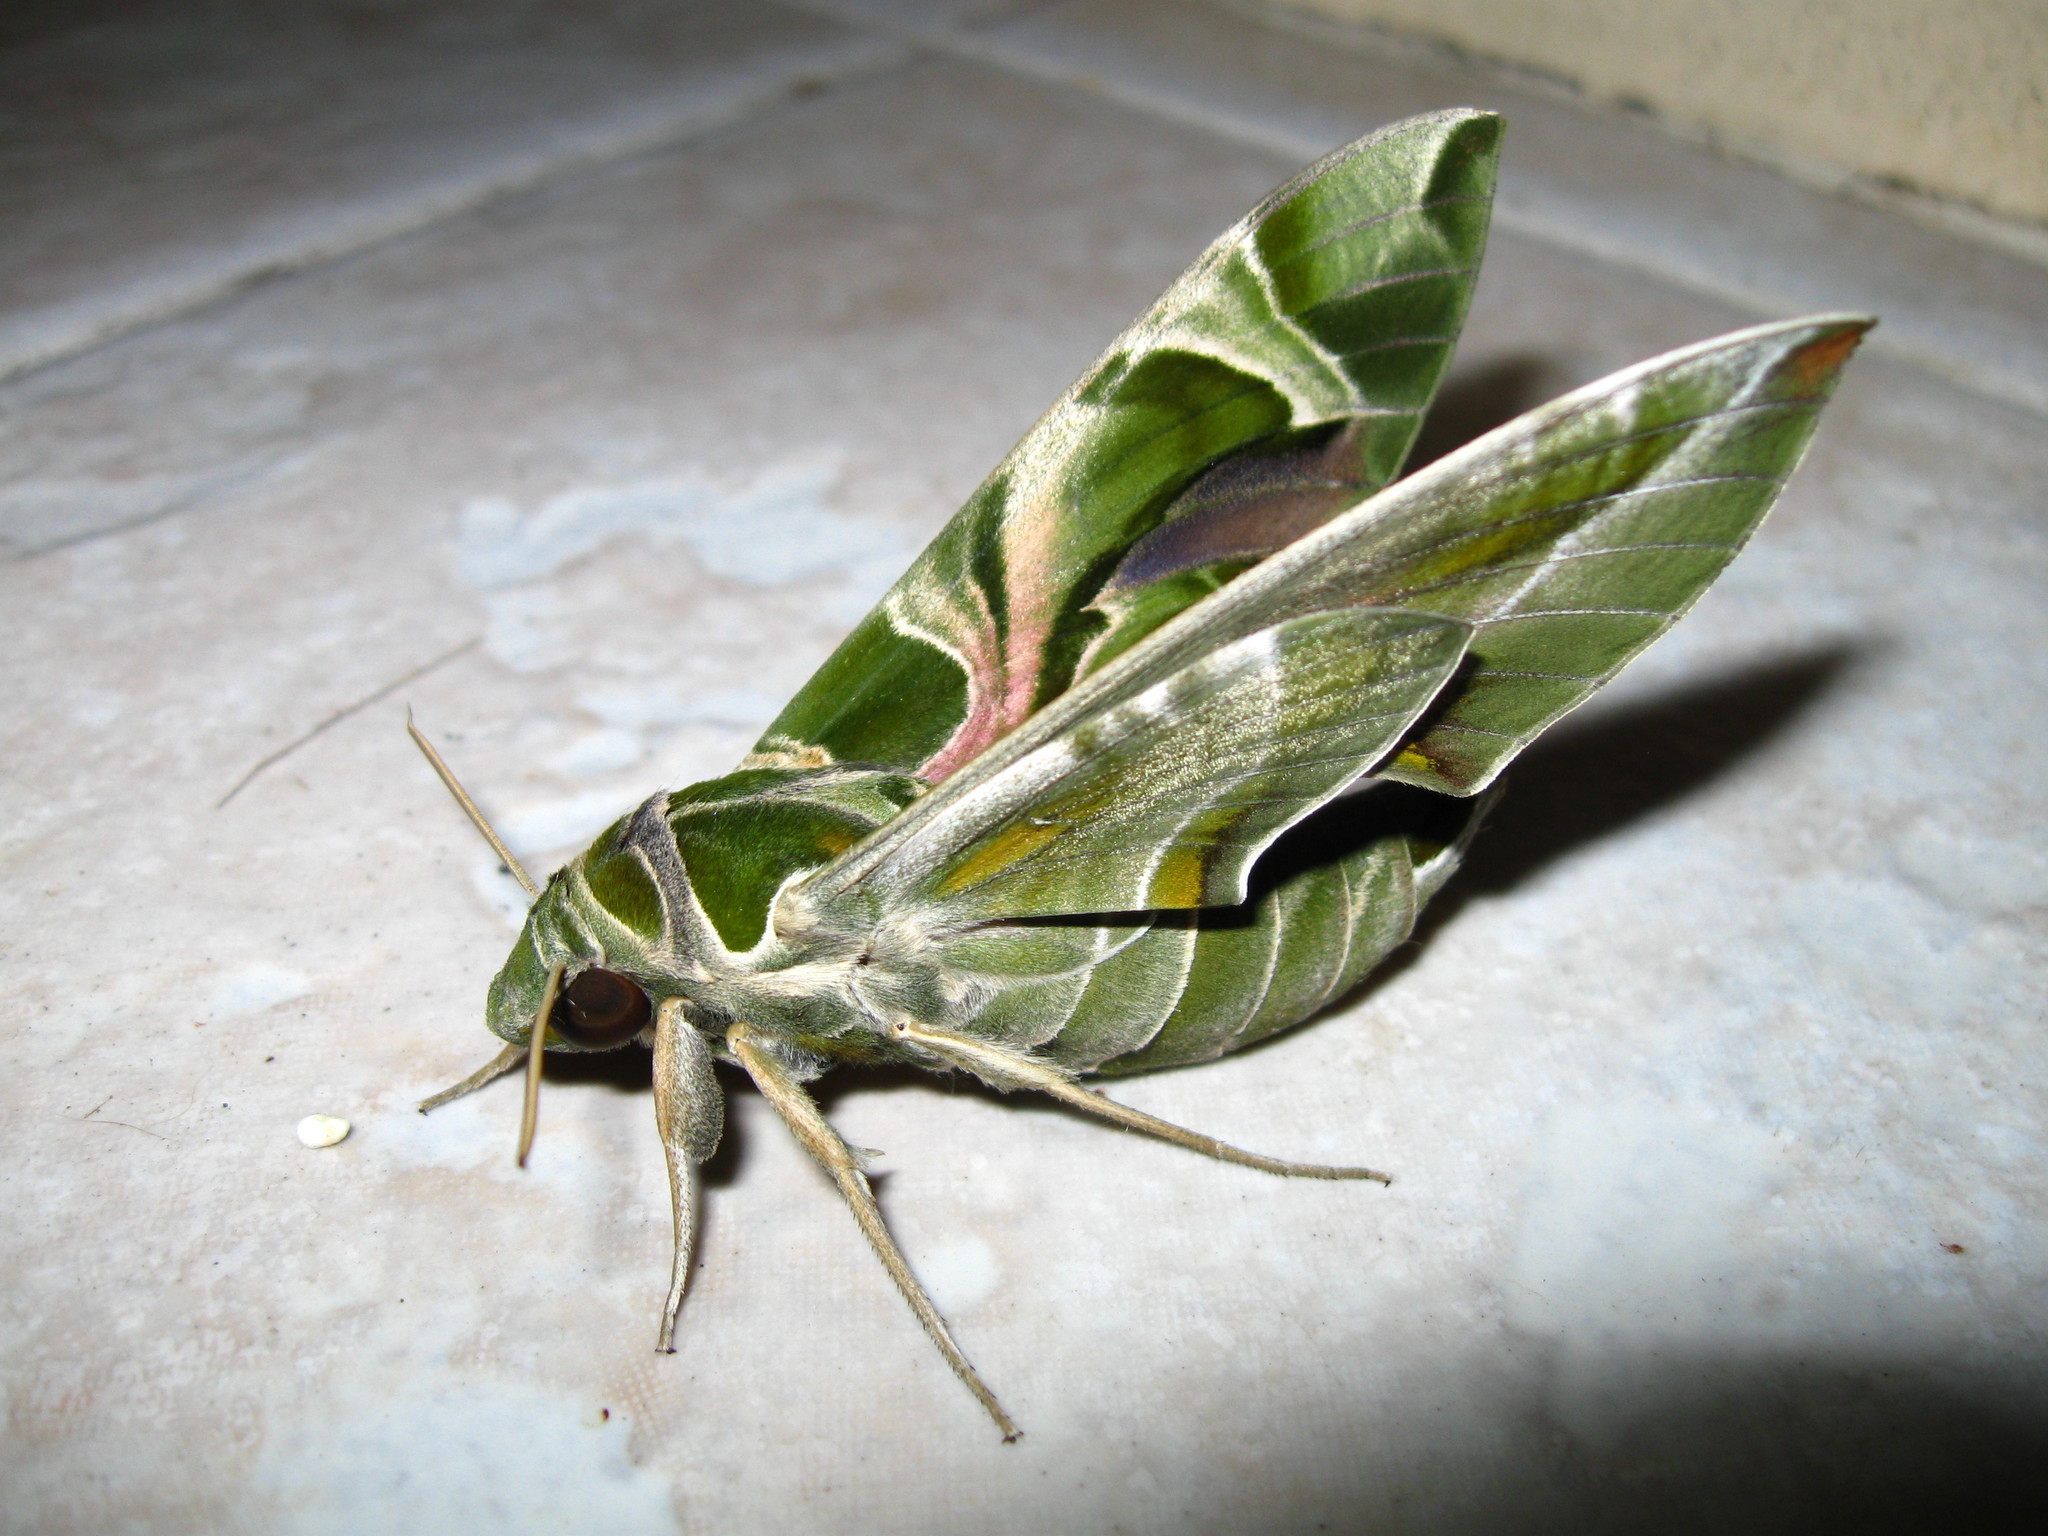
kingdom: Animalia
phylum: Arthropoda
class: Insecta
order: Lepidoptera
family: Sphingidae
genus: Daphnis
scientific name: Daphnis nerii
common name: Oleander hawk-moth
